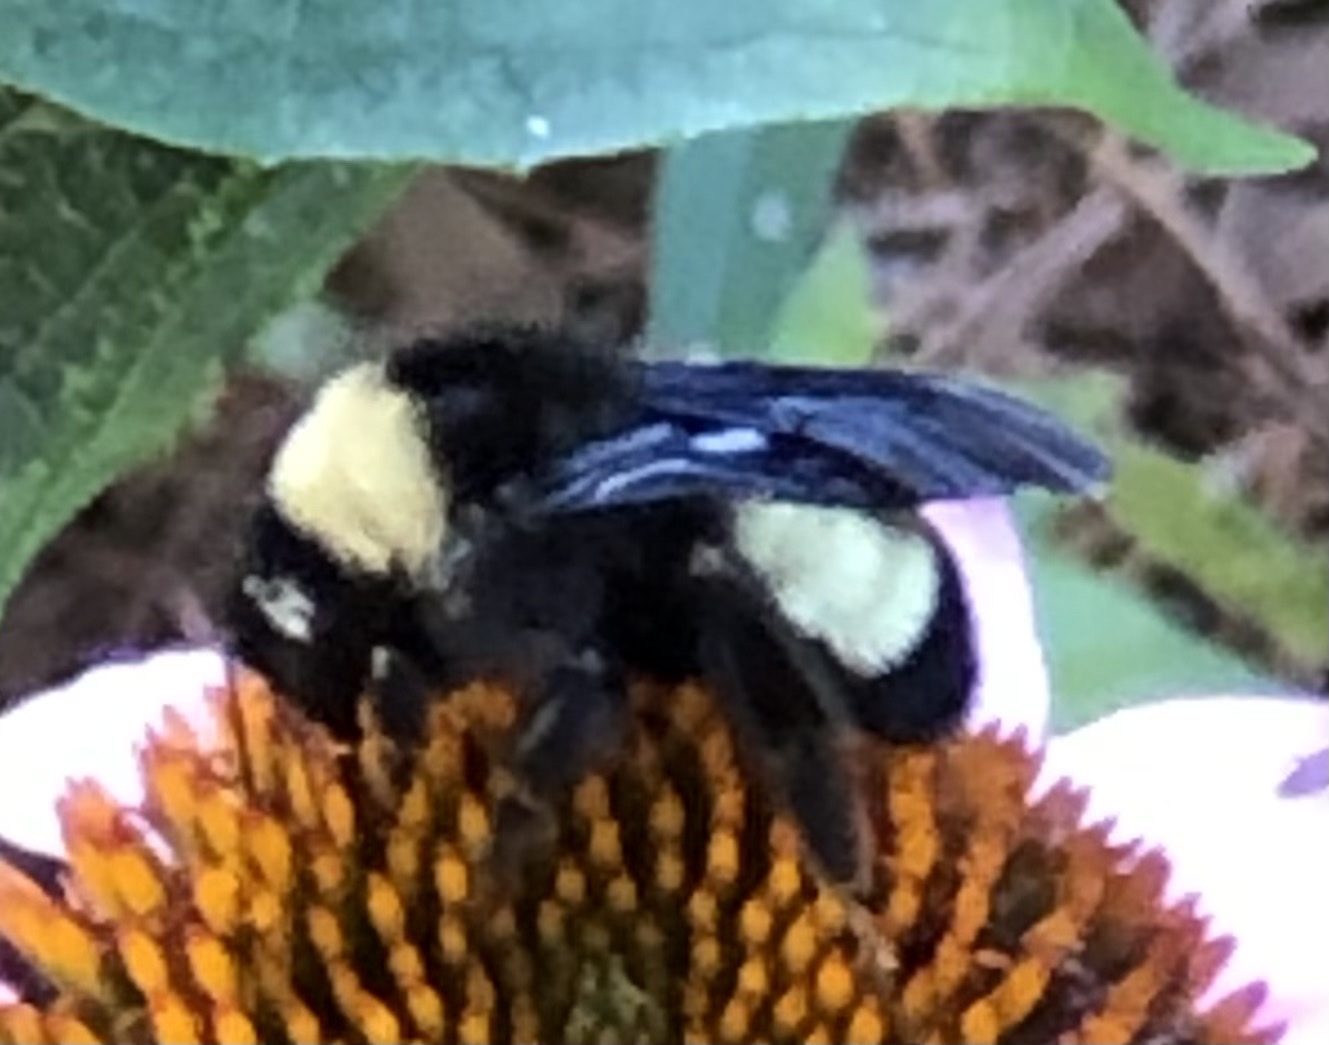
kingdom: Animalia
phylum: Arthropoda
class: Insecta
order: Hymenoptera
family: Apidae
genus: Bombus
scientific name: Bombus pensylvanicus
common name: Bumble bee
